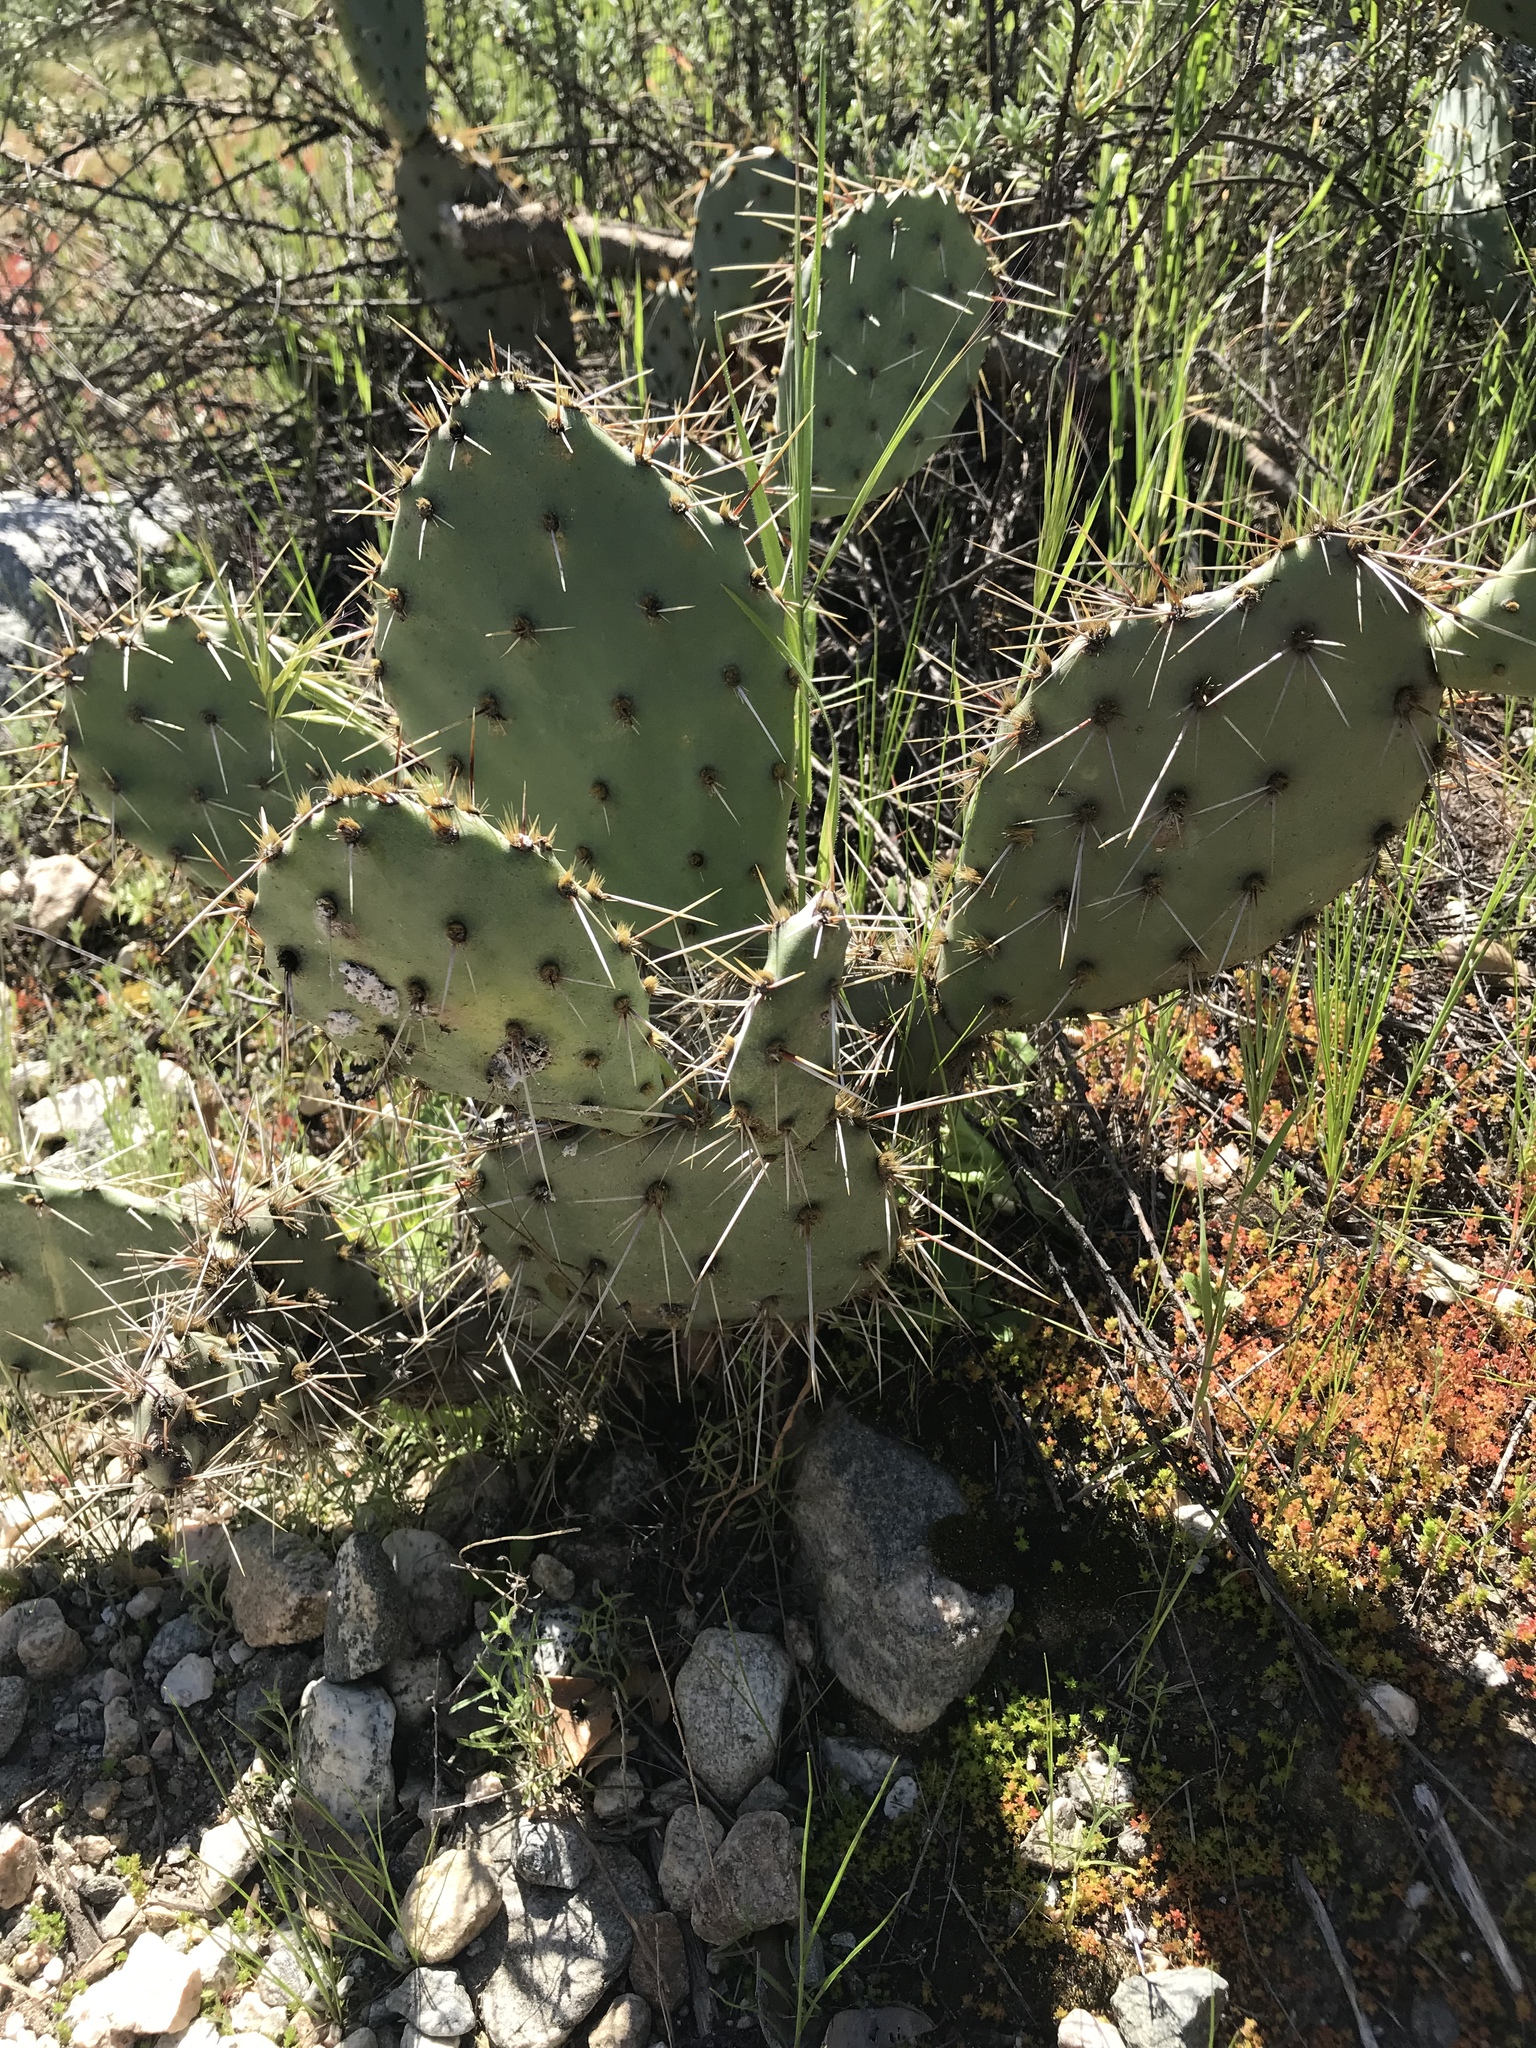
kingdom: Plantae
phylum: Tracheophyta
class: Magnoliopsida
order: Caryophyllales
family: Cactaceae
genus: Opuntia
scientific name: Opuntia littoralis
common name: Coastal prickly-pear
